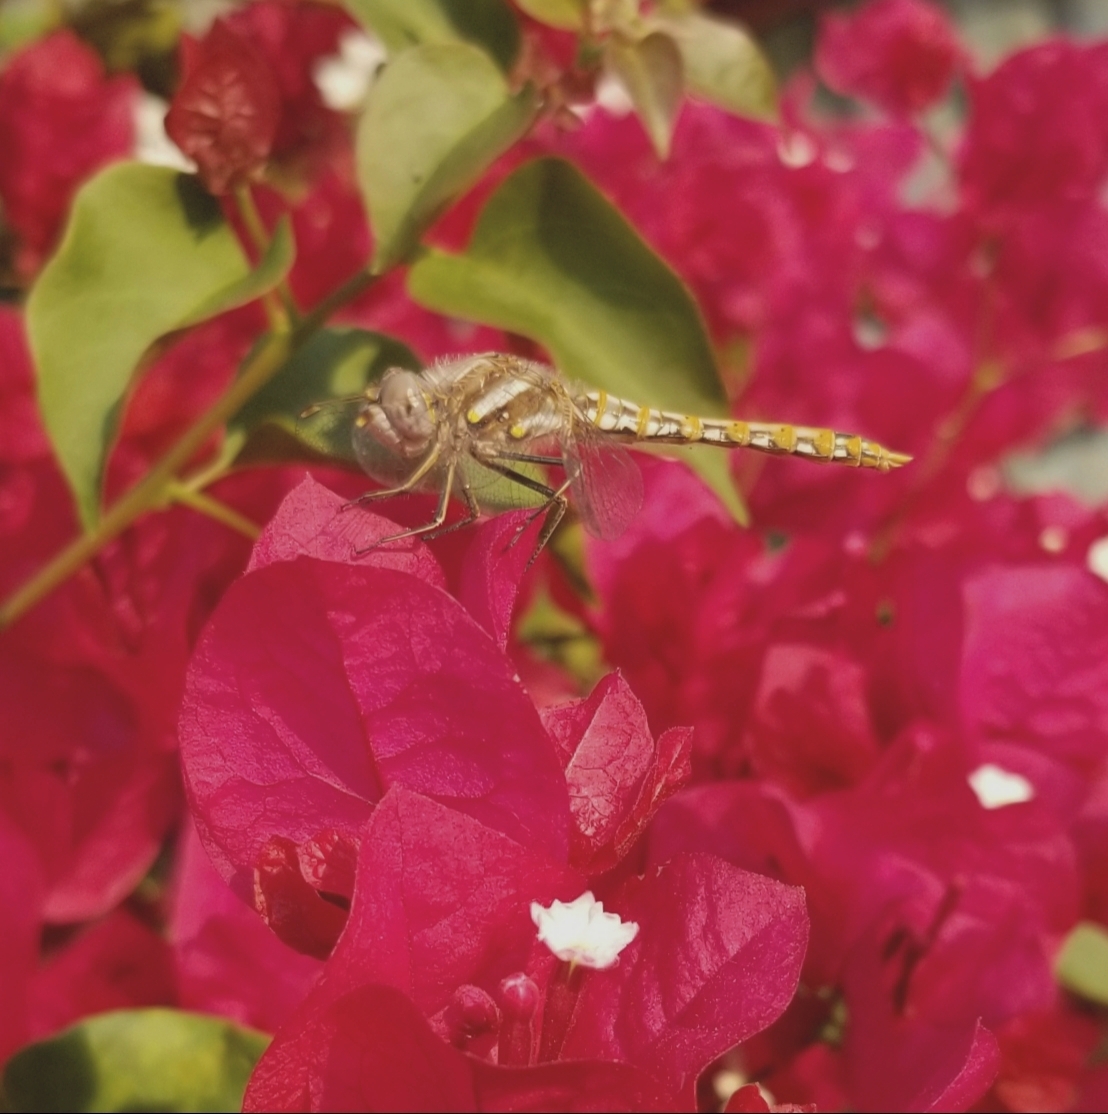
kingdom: Animalia
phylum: Arthropoda
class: Insecta
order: Odonata
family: Libellulidae
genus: Sympetrum
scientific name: Sympetrum corruptum
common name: Variegated meadowhawk
